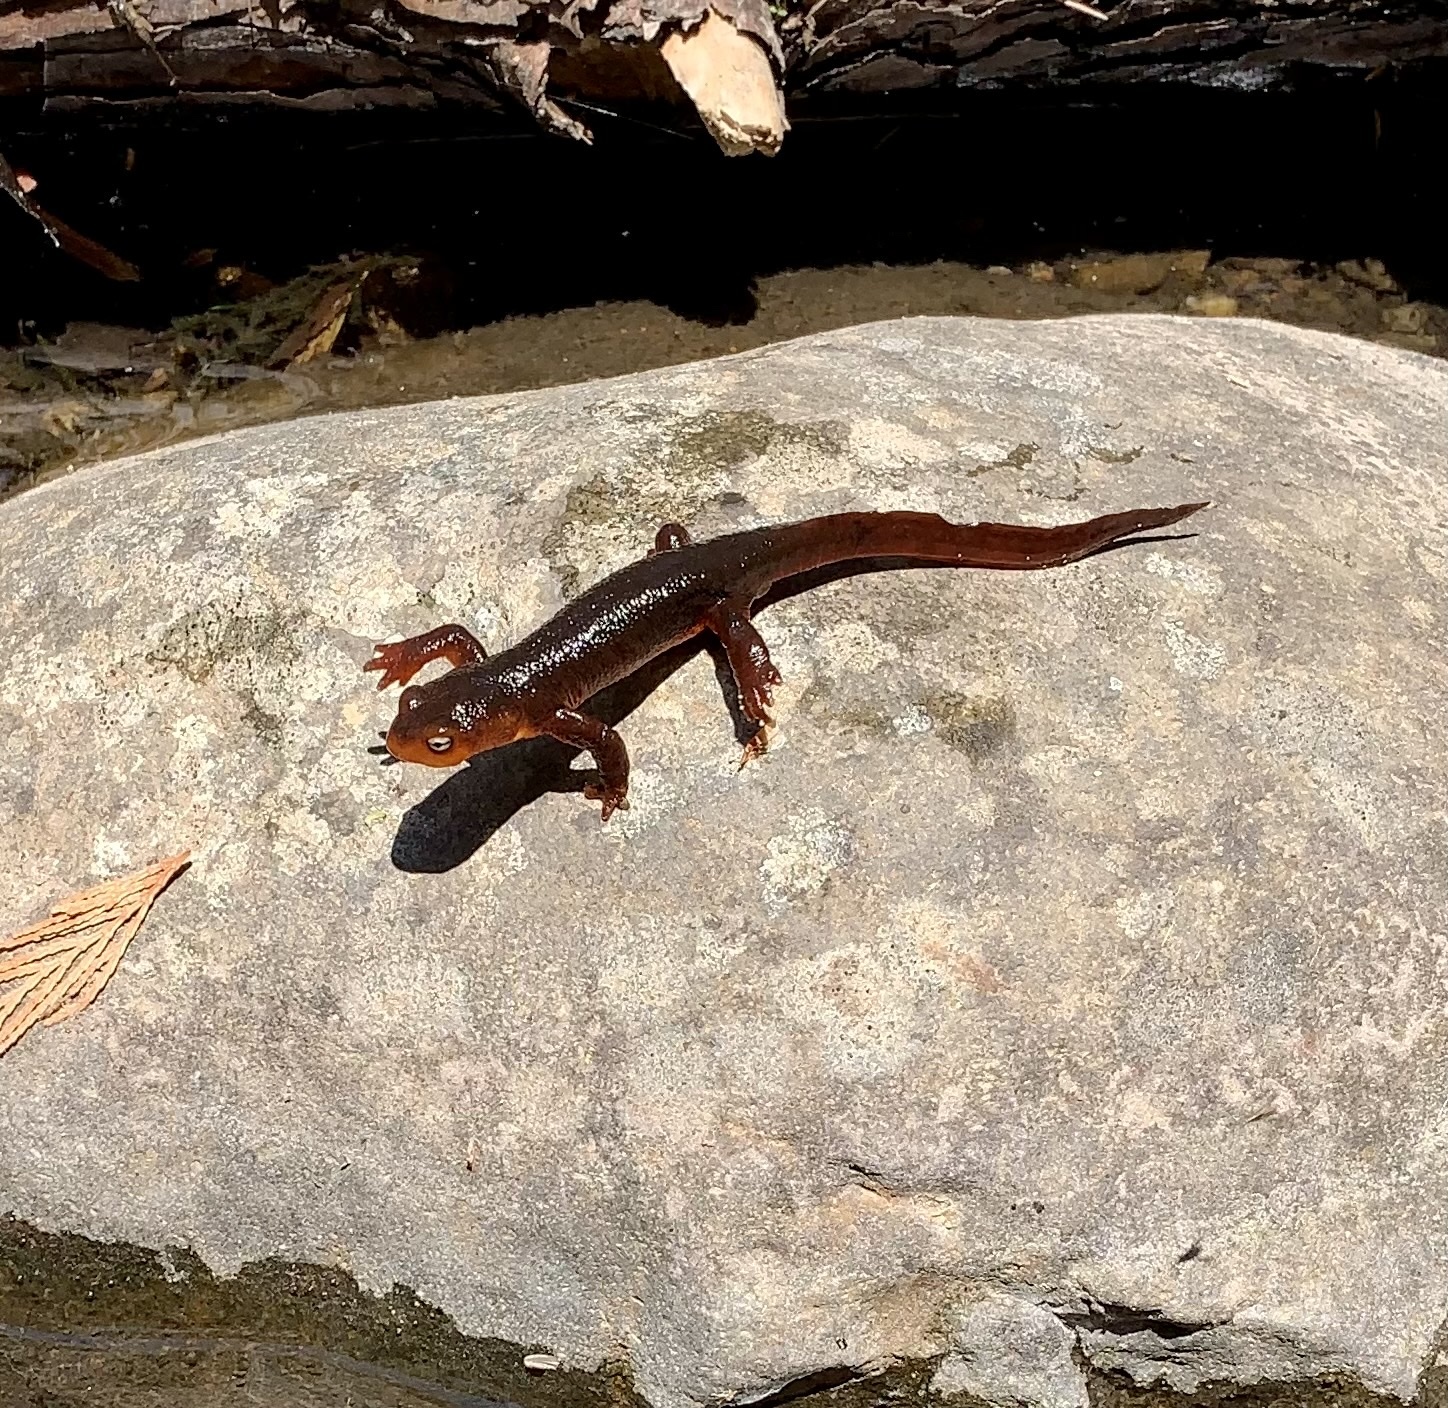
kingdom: Animalia
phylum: Chordata
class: Amphibia
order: Caudata
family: Salamandridae
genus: Taricha
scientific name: Taricha sierrae
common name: Sierra newt
